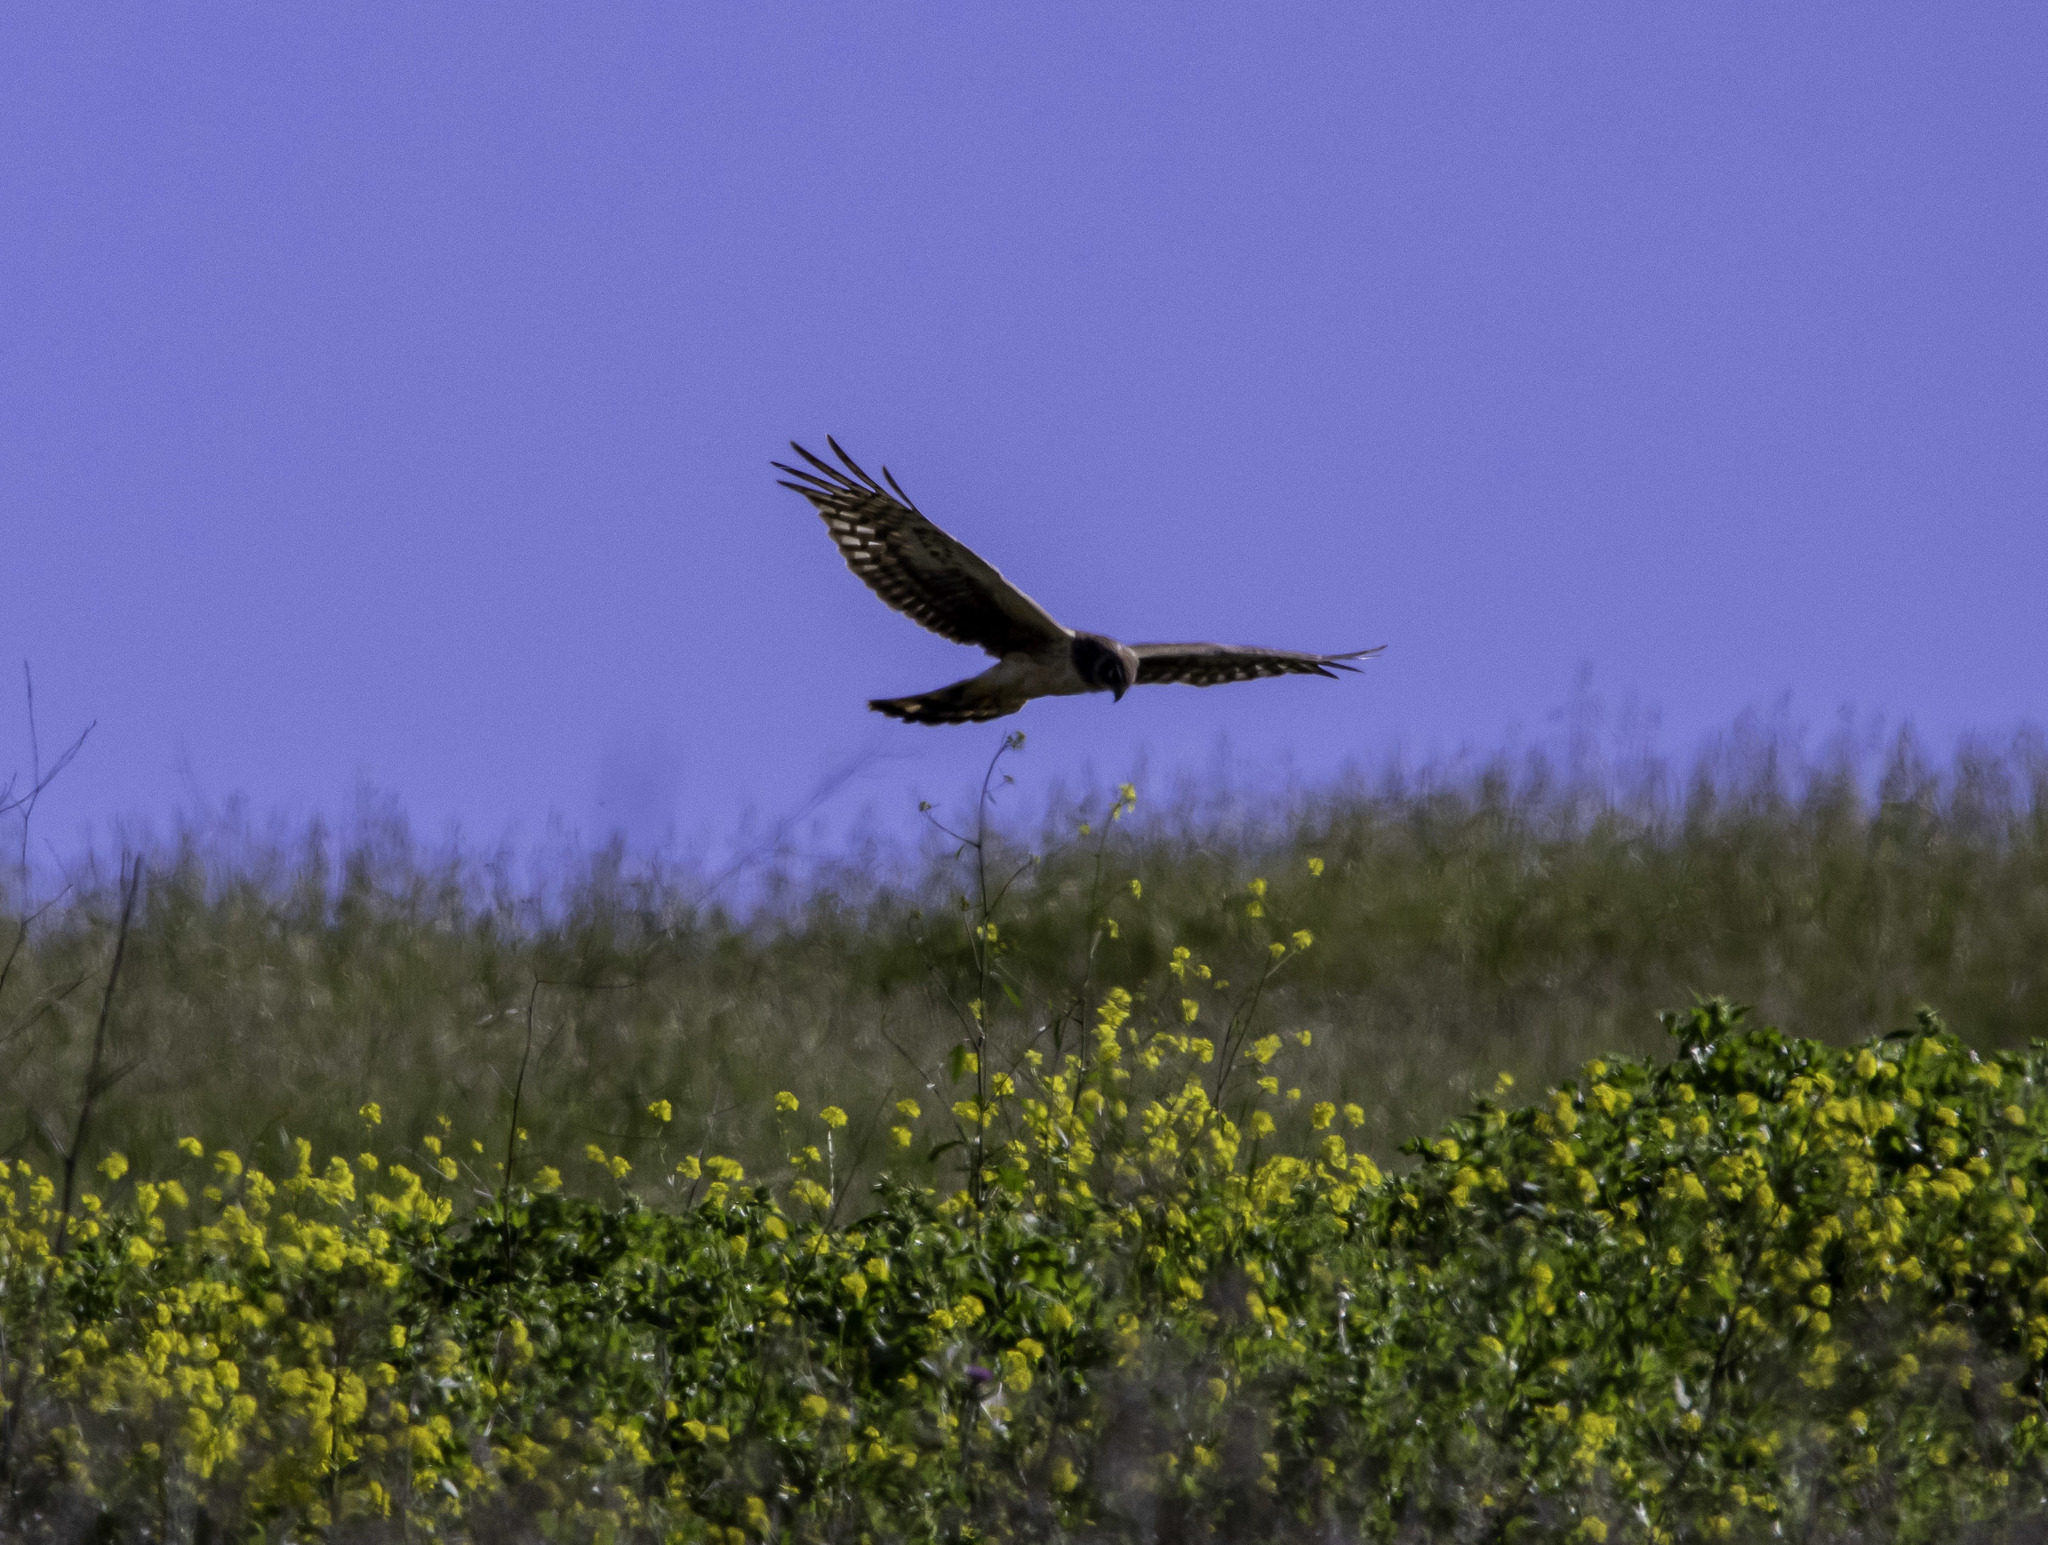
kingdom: Animalia
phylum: Chordata
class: Aves
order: Accipitriformes
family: Accipitridae
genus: Circus
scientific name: Circus cyaneus
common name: Hen harrier
